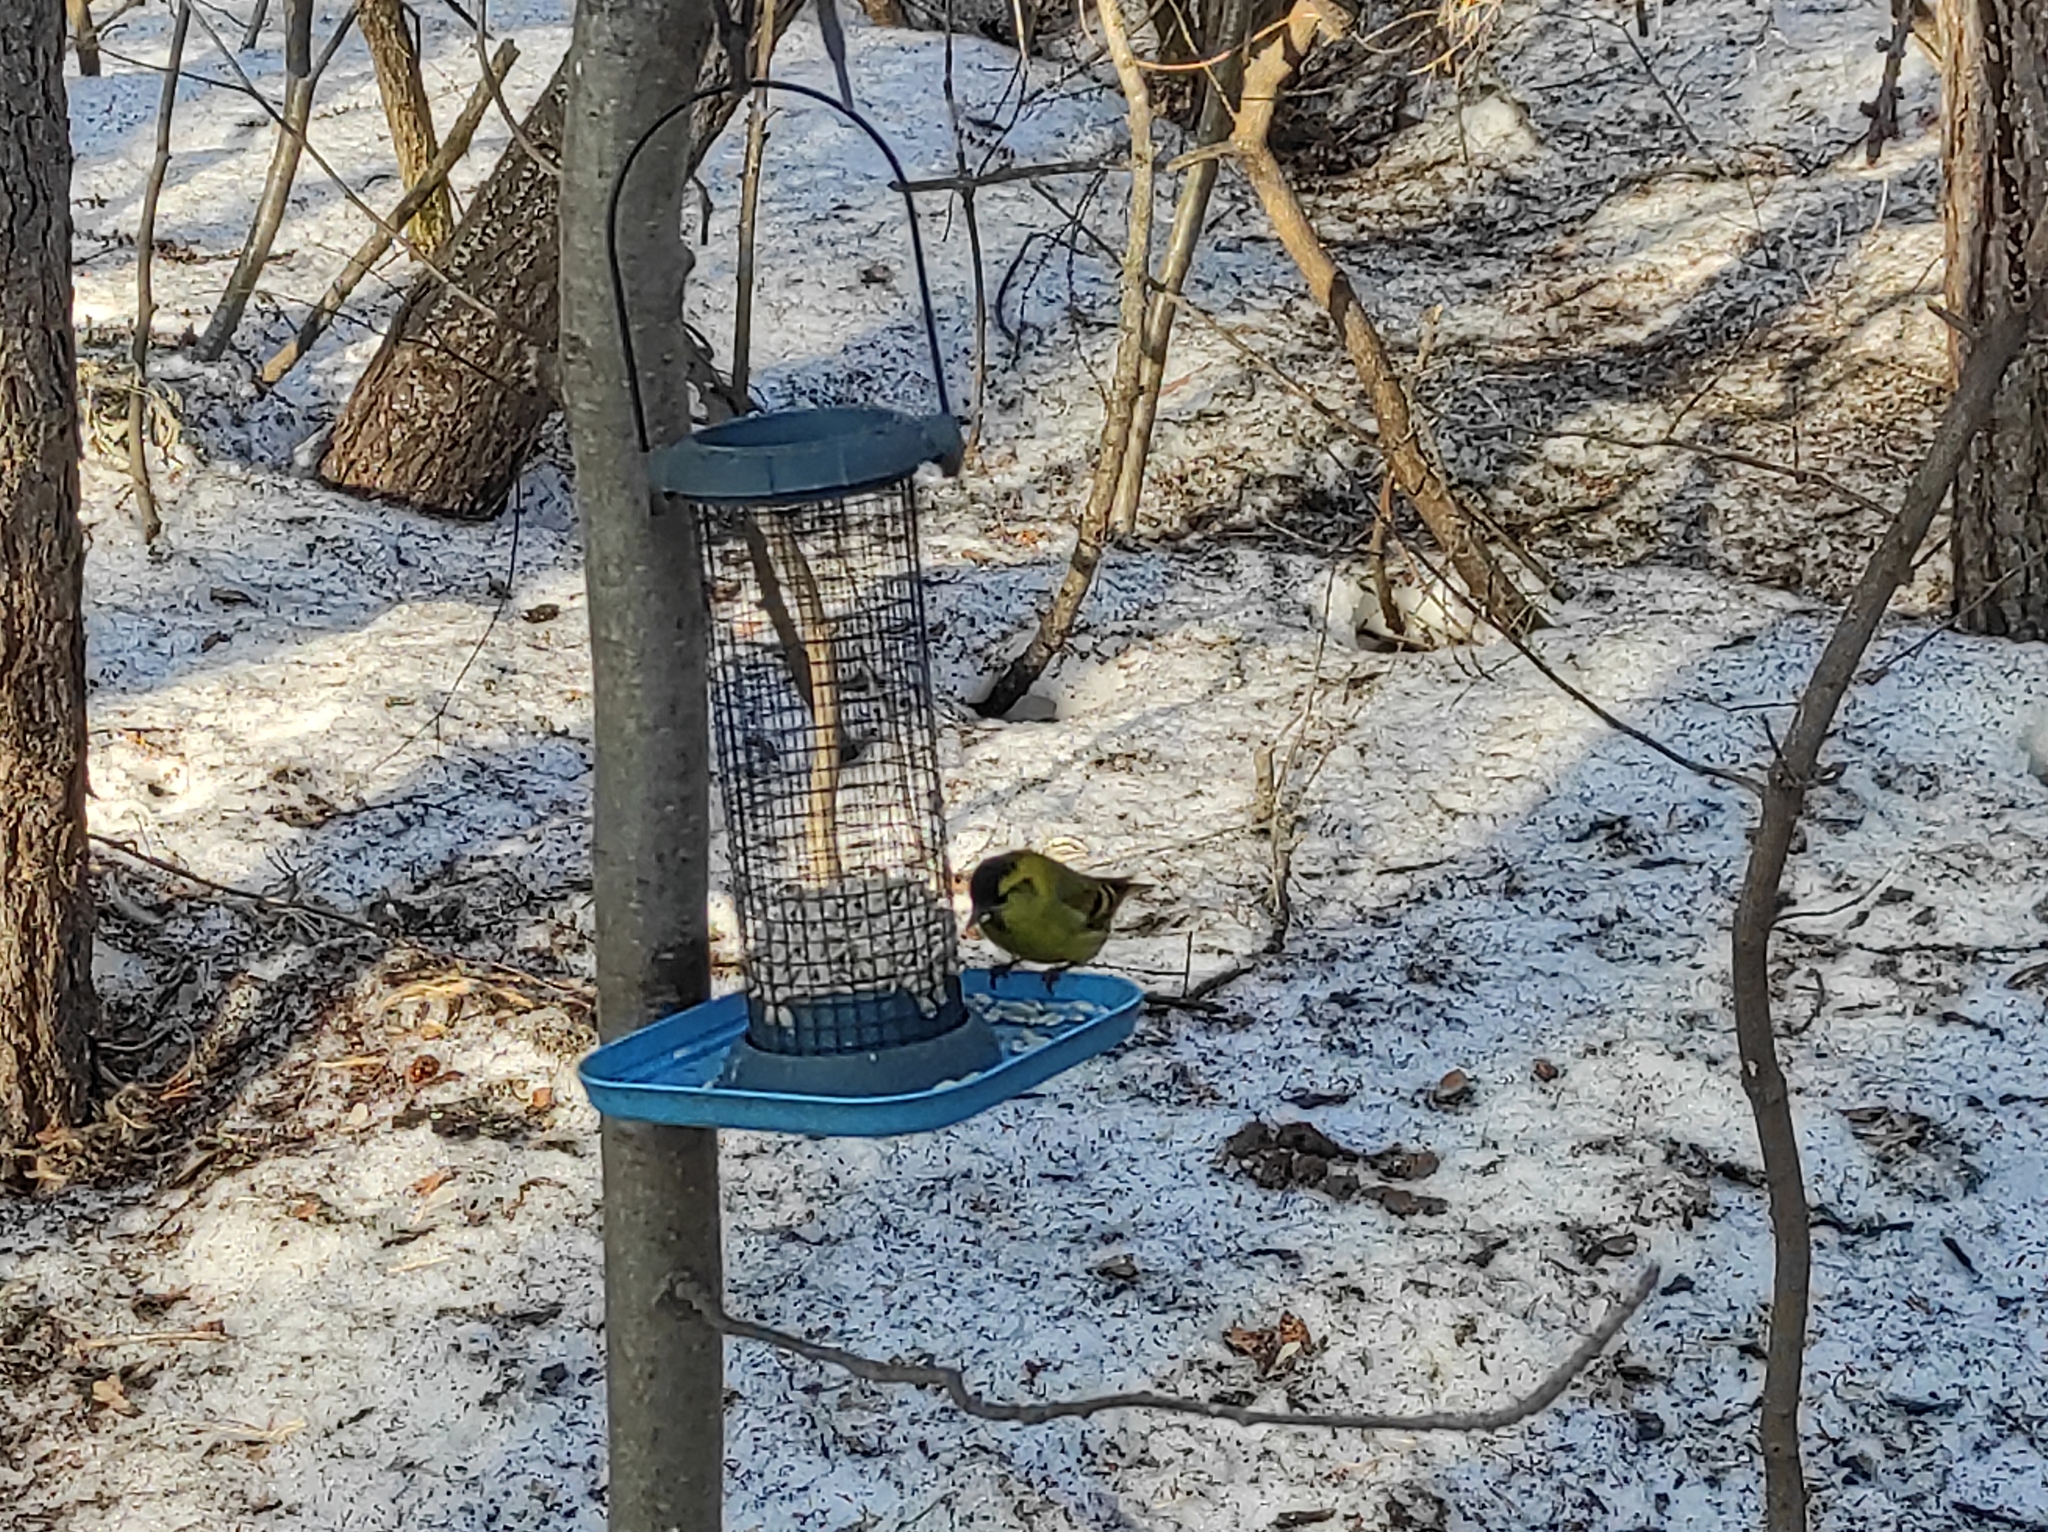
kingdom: Animalia
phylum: Chordata
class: Aves
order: Passeriformes
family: Fringillidae
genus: Spinus
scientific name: Spinus spinus
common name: Eurasian siskin
